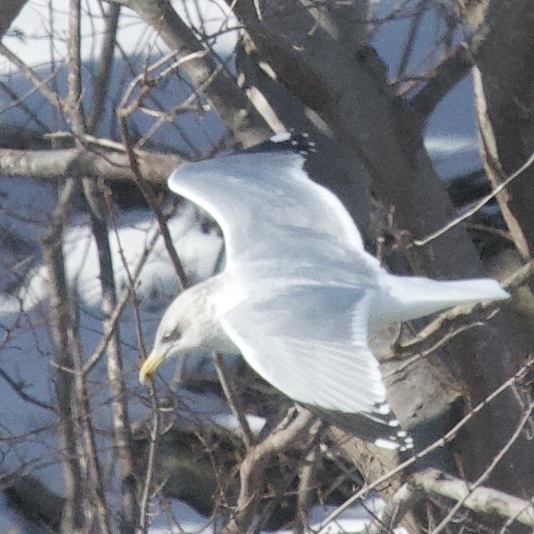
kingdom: Animalia
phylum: Chordata
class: Aves
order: Charadriiformes
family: Laridae
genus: Larus
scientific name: Larus argentatus
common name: Herring gull
